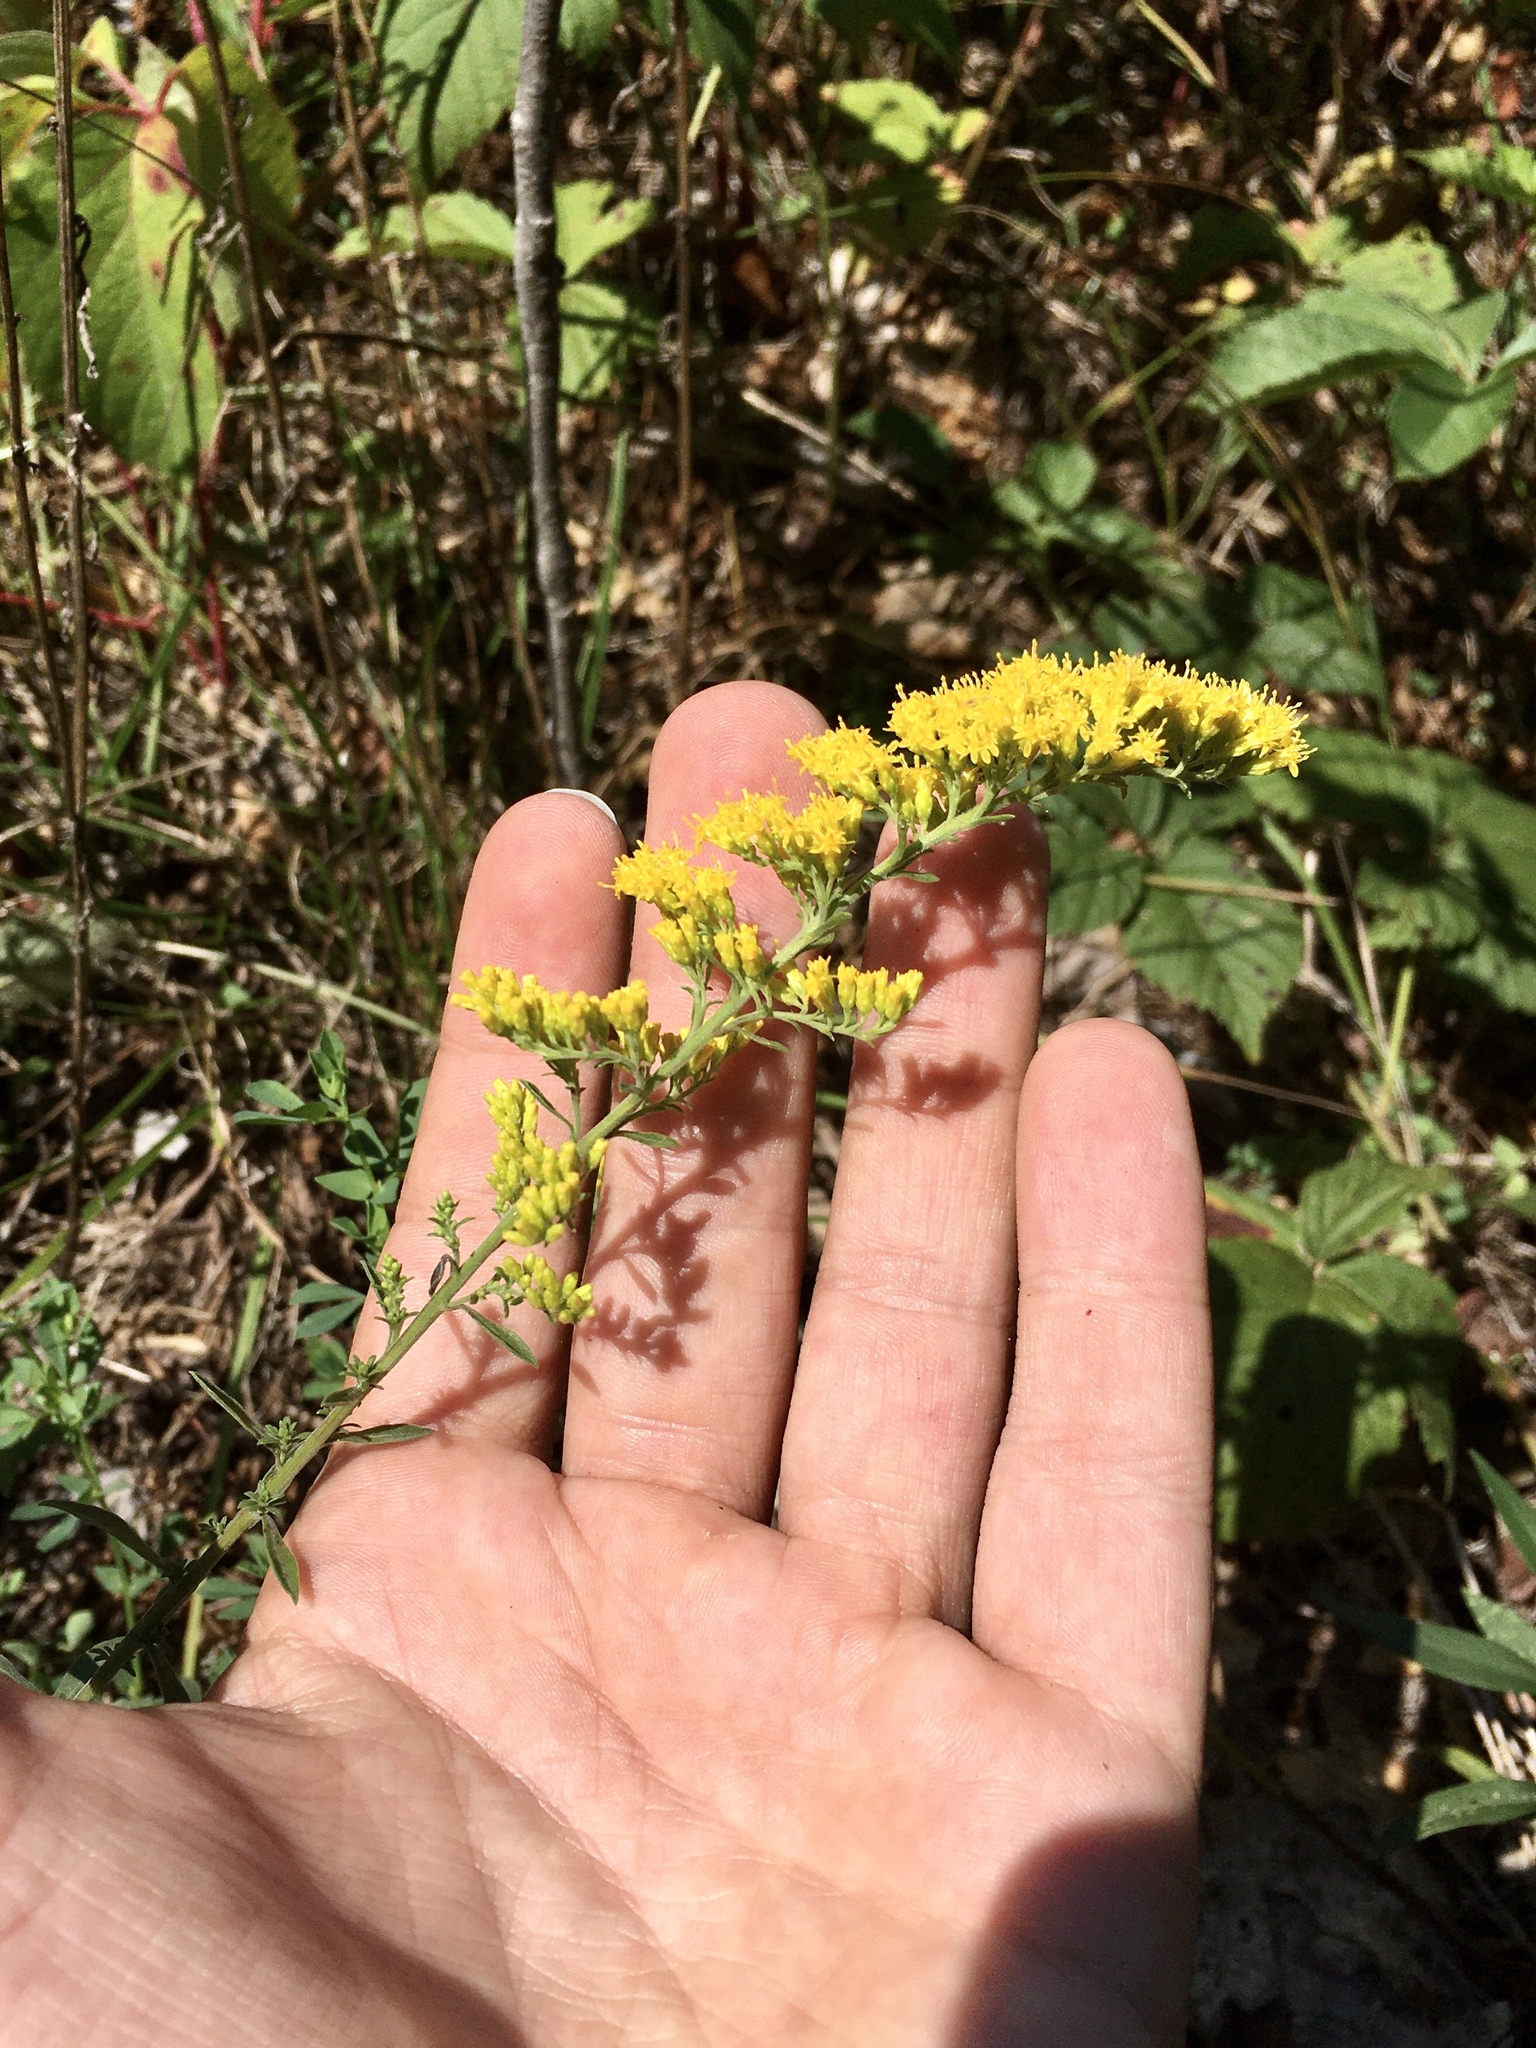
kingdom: Plantae
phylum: Tracheophyta
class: Magnoliopsida
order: Asterales
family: Asteraceae
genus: Solidago
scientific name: Solidago nemoralis
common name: Grey goldenrod
